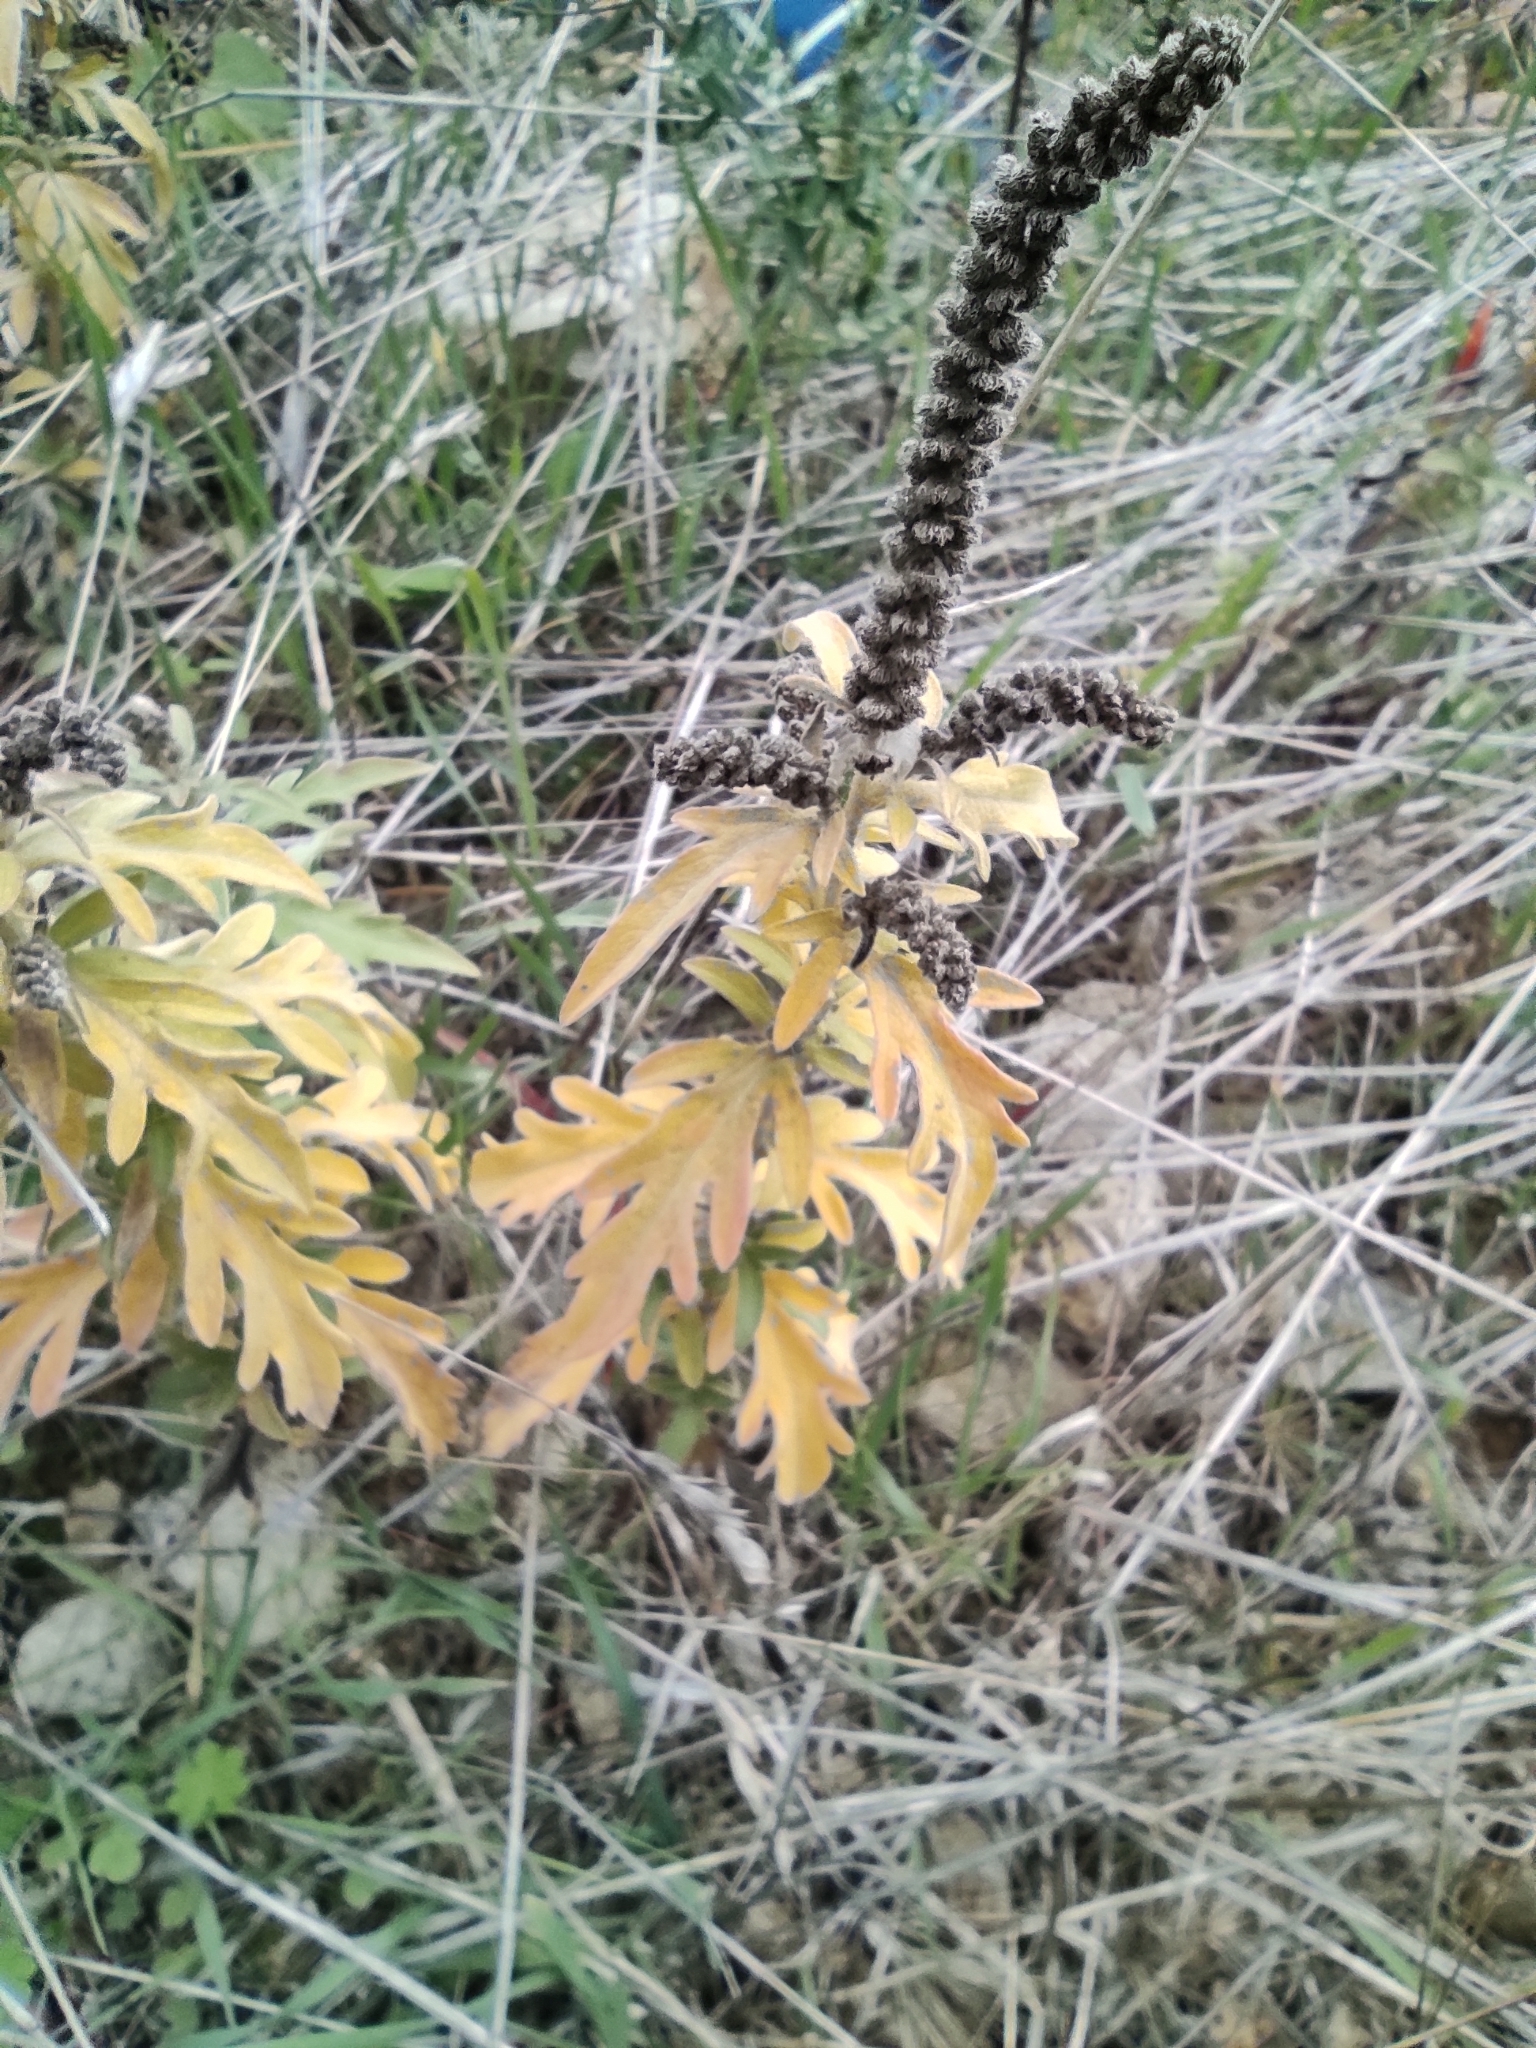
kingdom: Plantae
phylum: Tracheophyta
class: Magnoliopsida
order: Asterales
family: Asteraceae
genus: Ambrosia
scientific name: Ambrosia psilostachya
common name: Perennial ragweed
